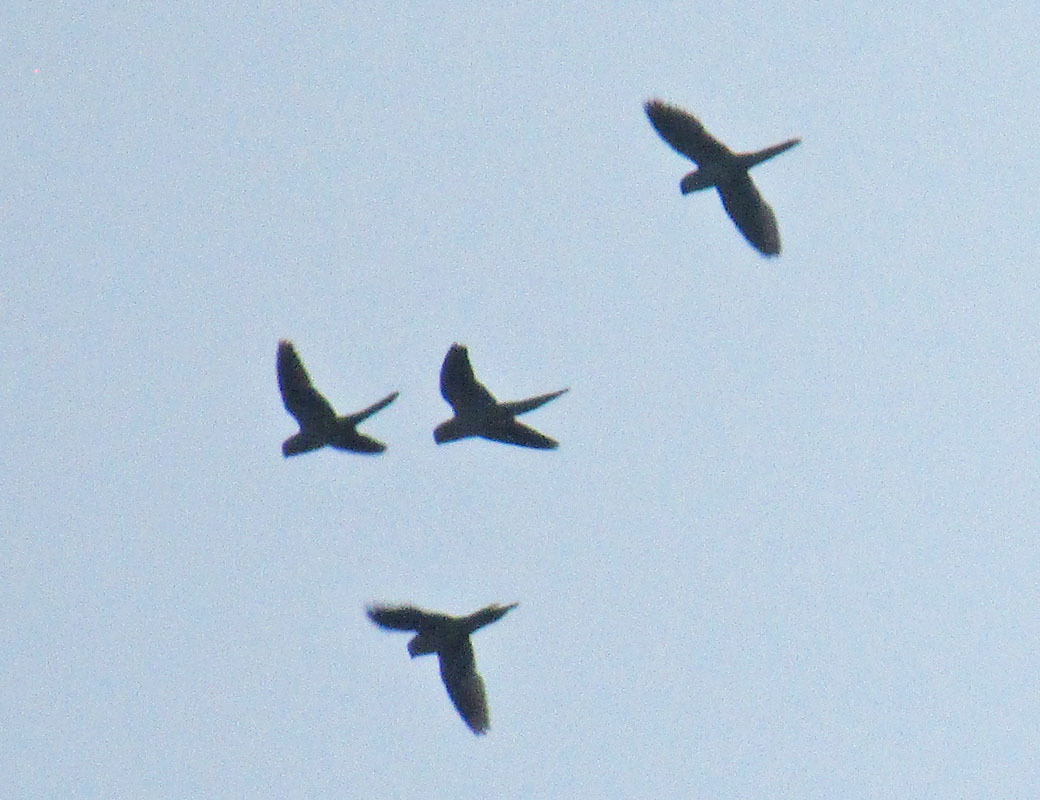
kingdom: Animalia
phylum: Chordata
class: Aves
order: Psittaciformes
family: Psittacidae
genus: Myiopsitta
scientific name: Myiopsitta monachus
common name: Monk parakeet
